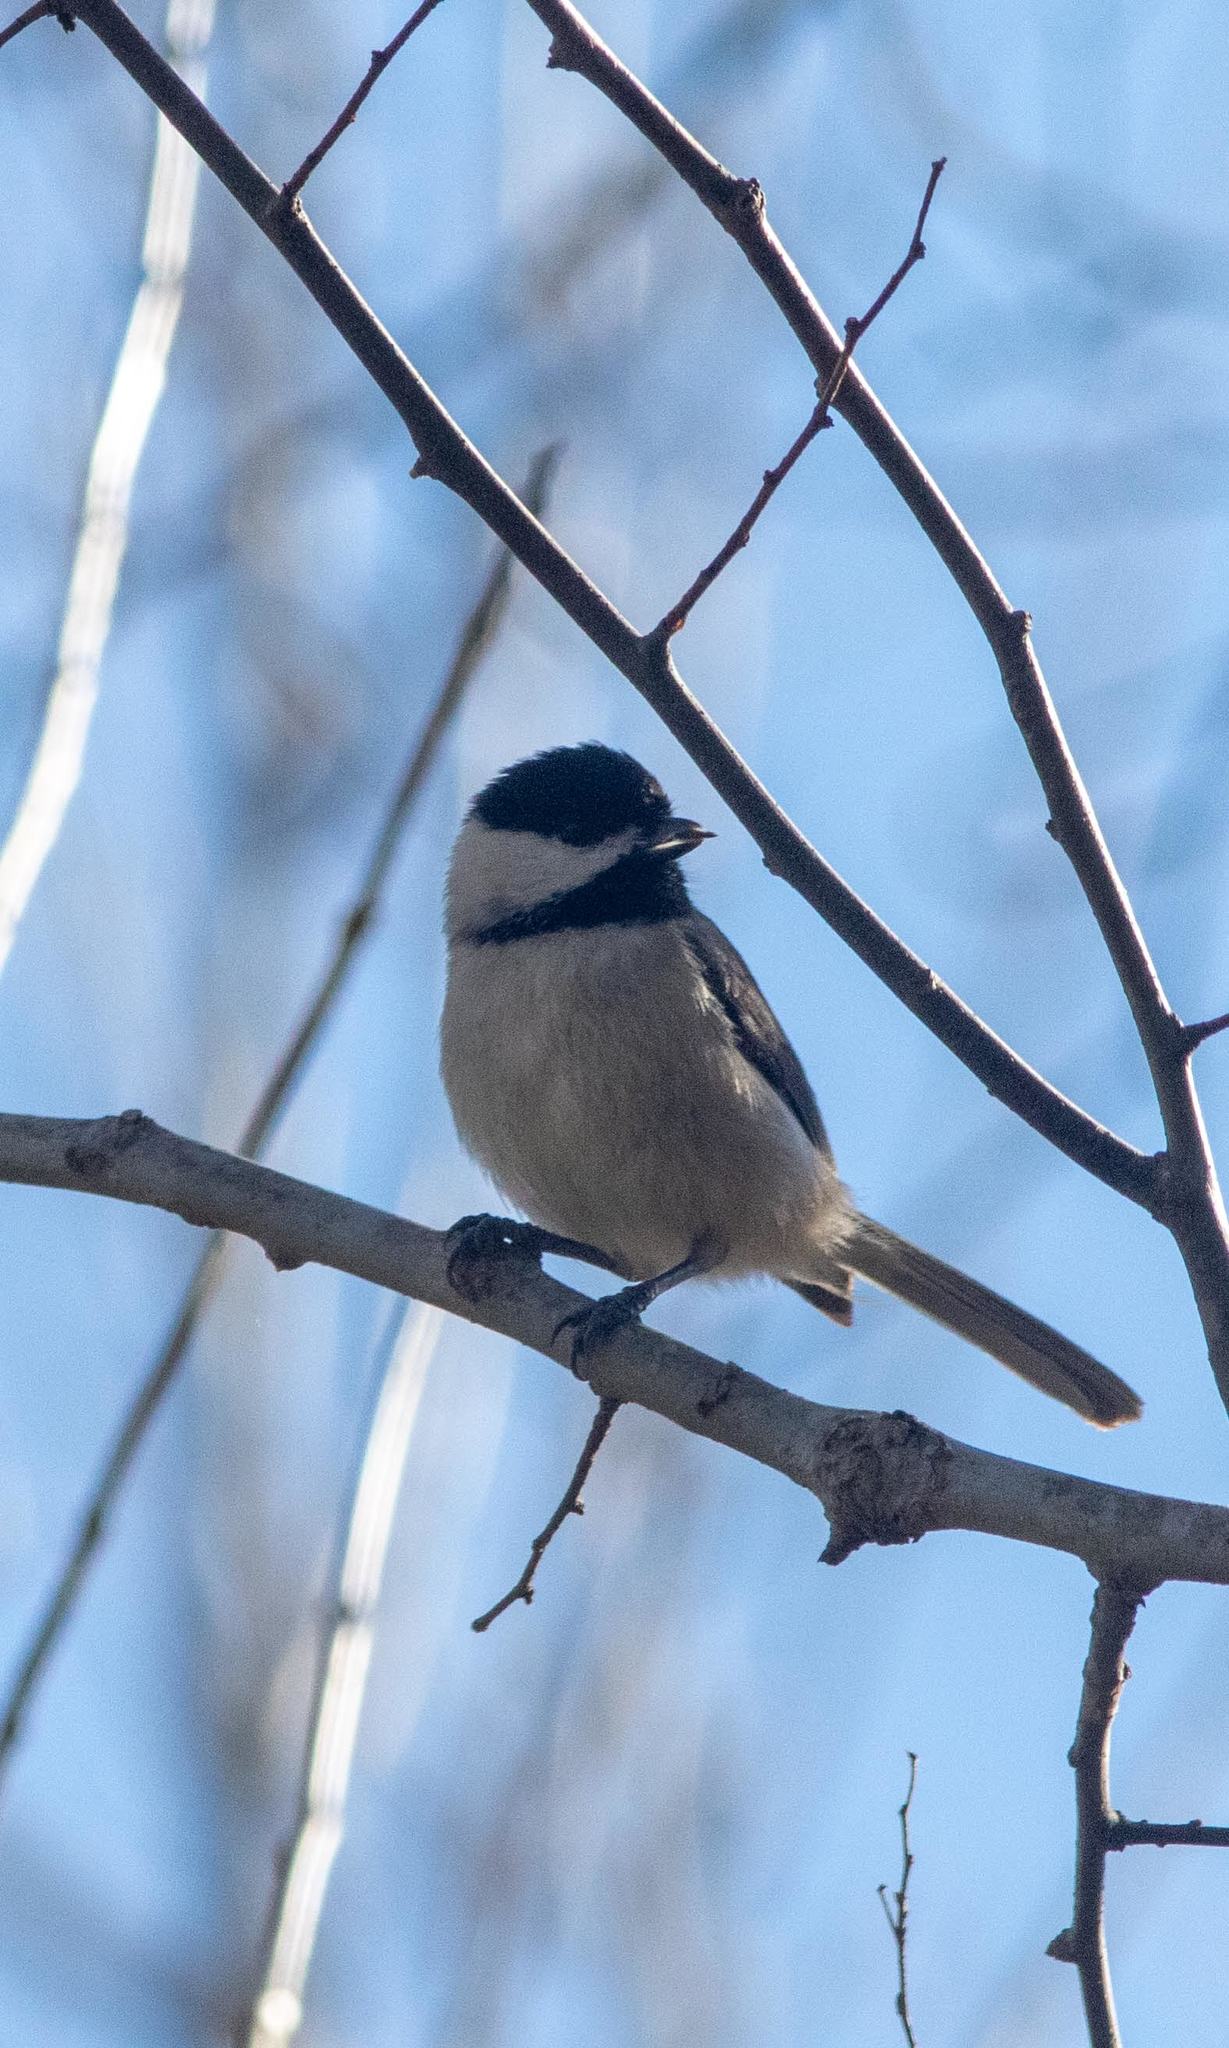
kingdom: Animalia
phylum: Chordata
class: Aves
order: Passeriformes
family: Paridae
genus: Poecile
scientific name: Poecile carolinensis
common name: Carolina chickadee
